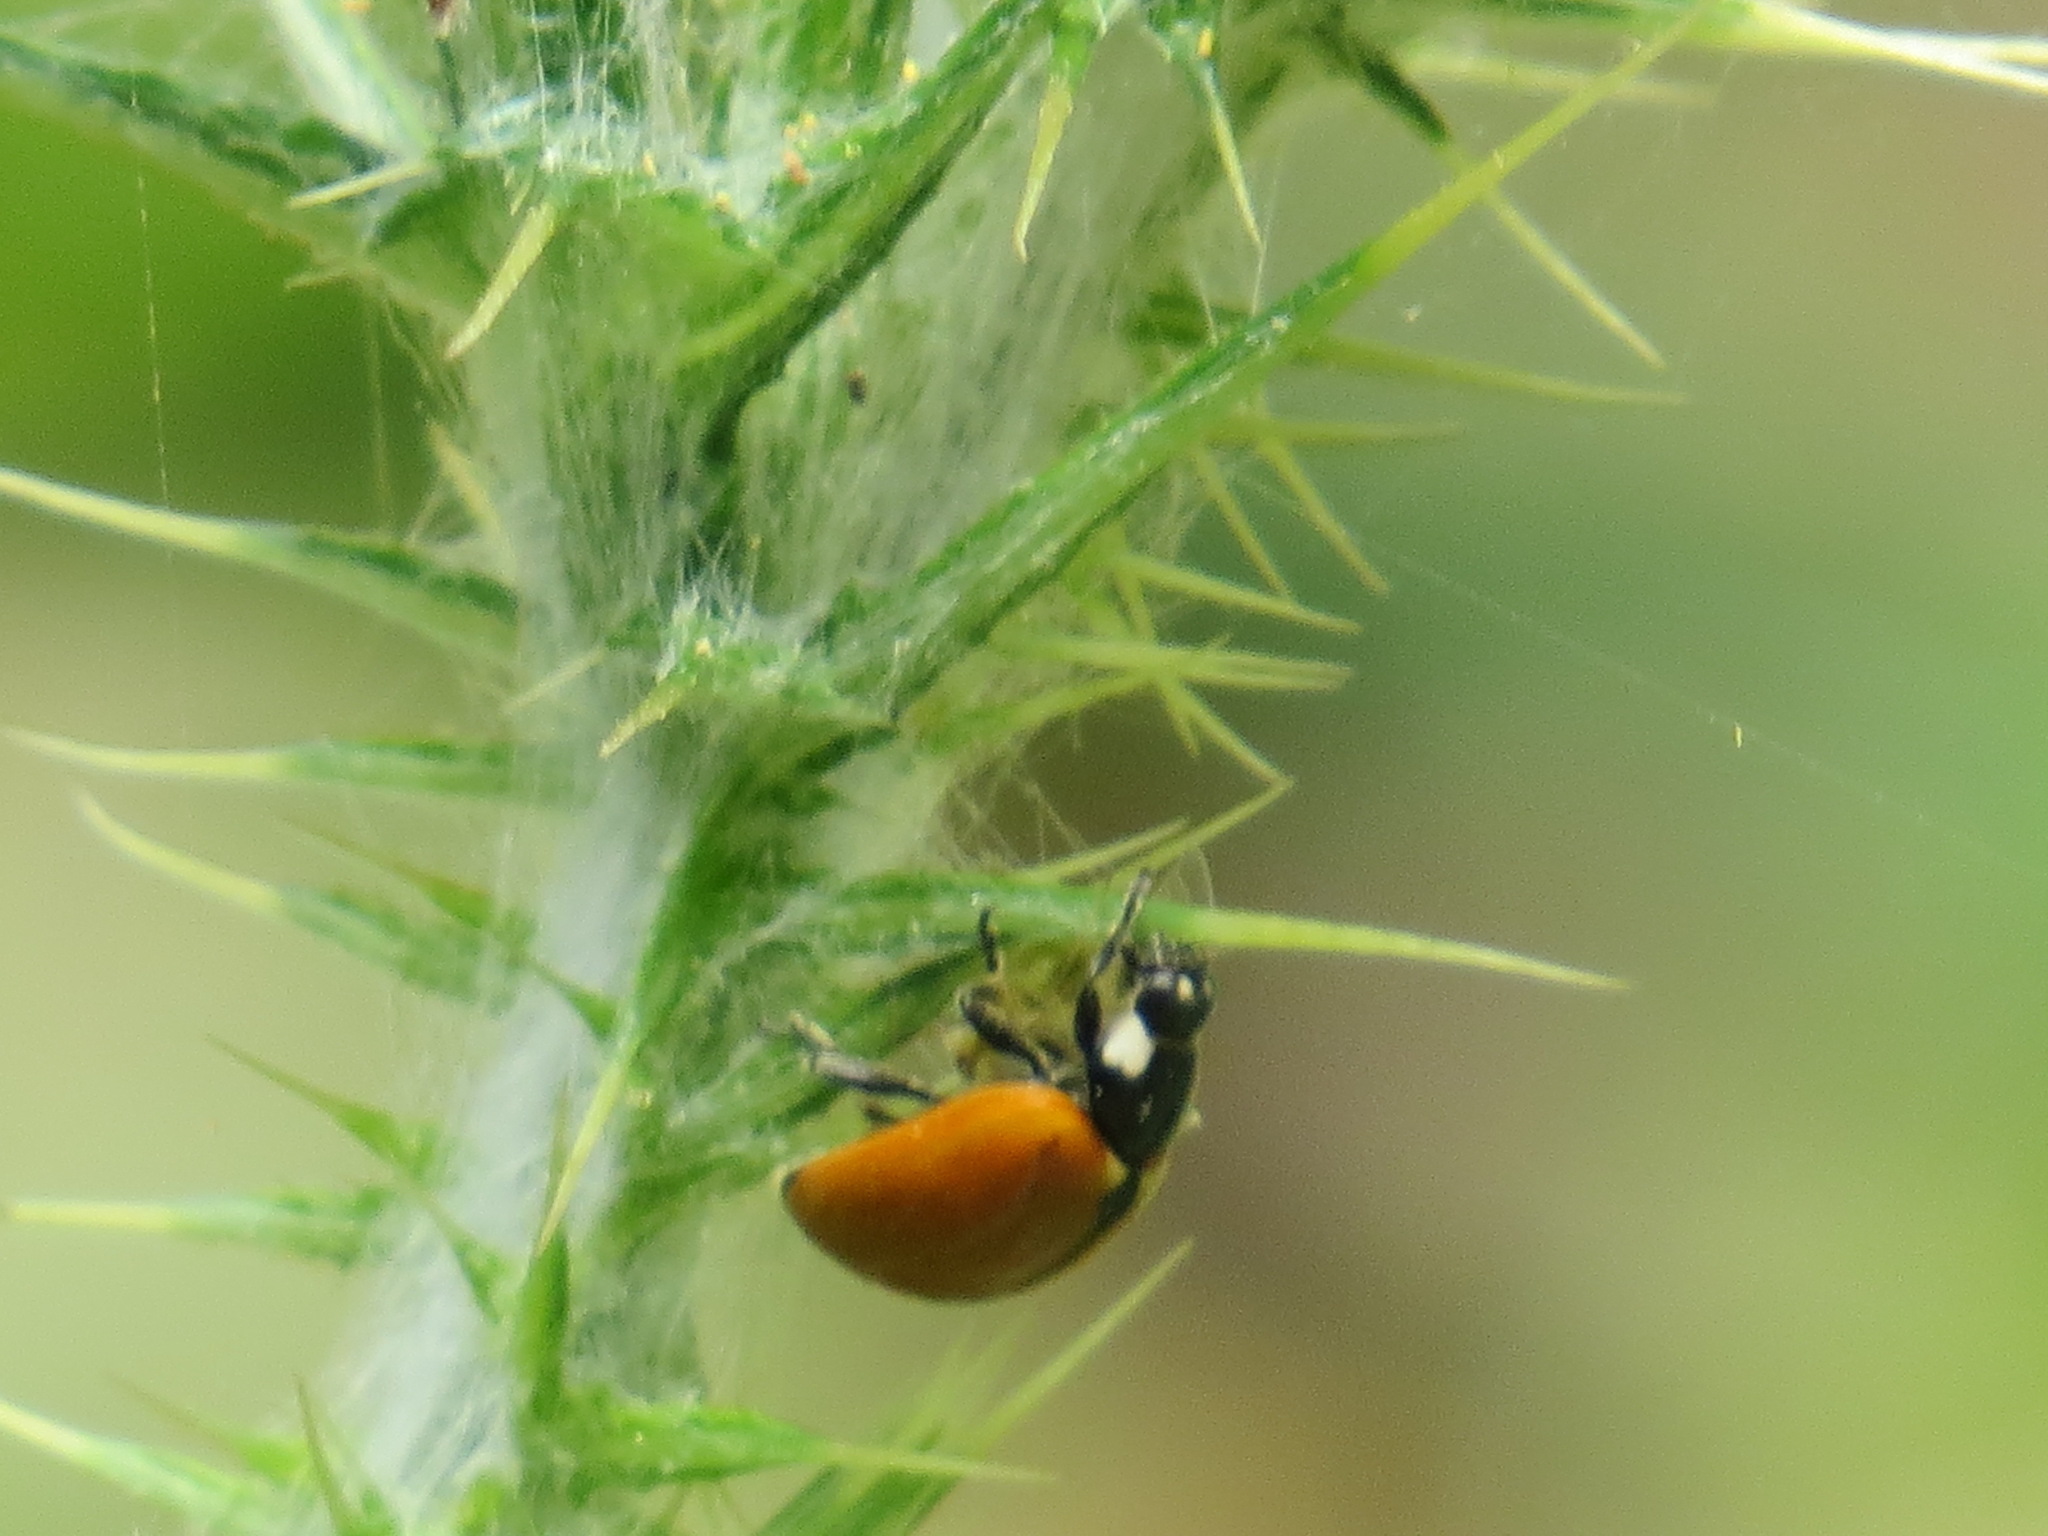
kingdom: Animalia
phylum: Arthropoda
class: Insecta
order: Coleoptera
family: Coccinellidae
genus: Coccinella
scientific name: Coccinella californica
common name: Lady beetle
